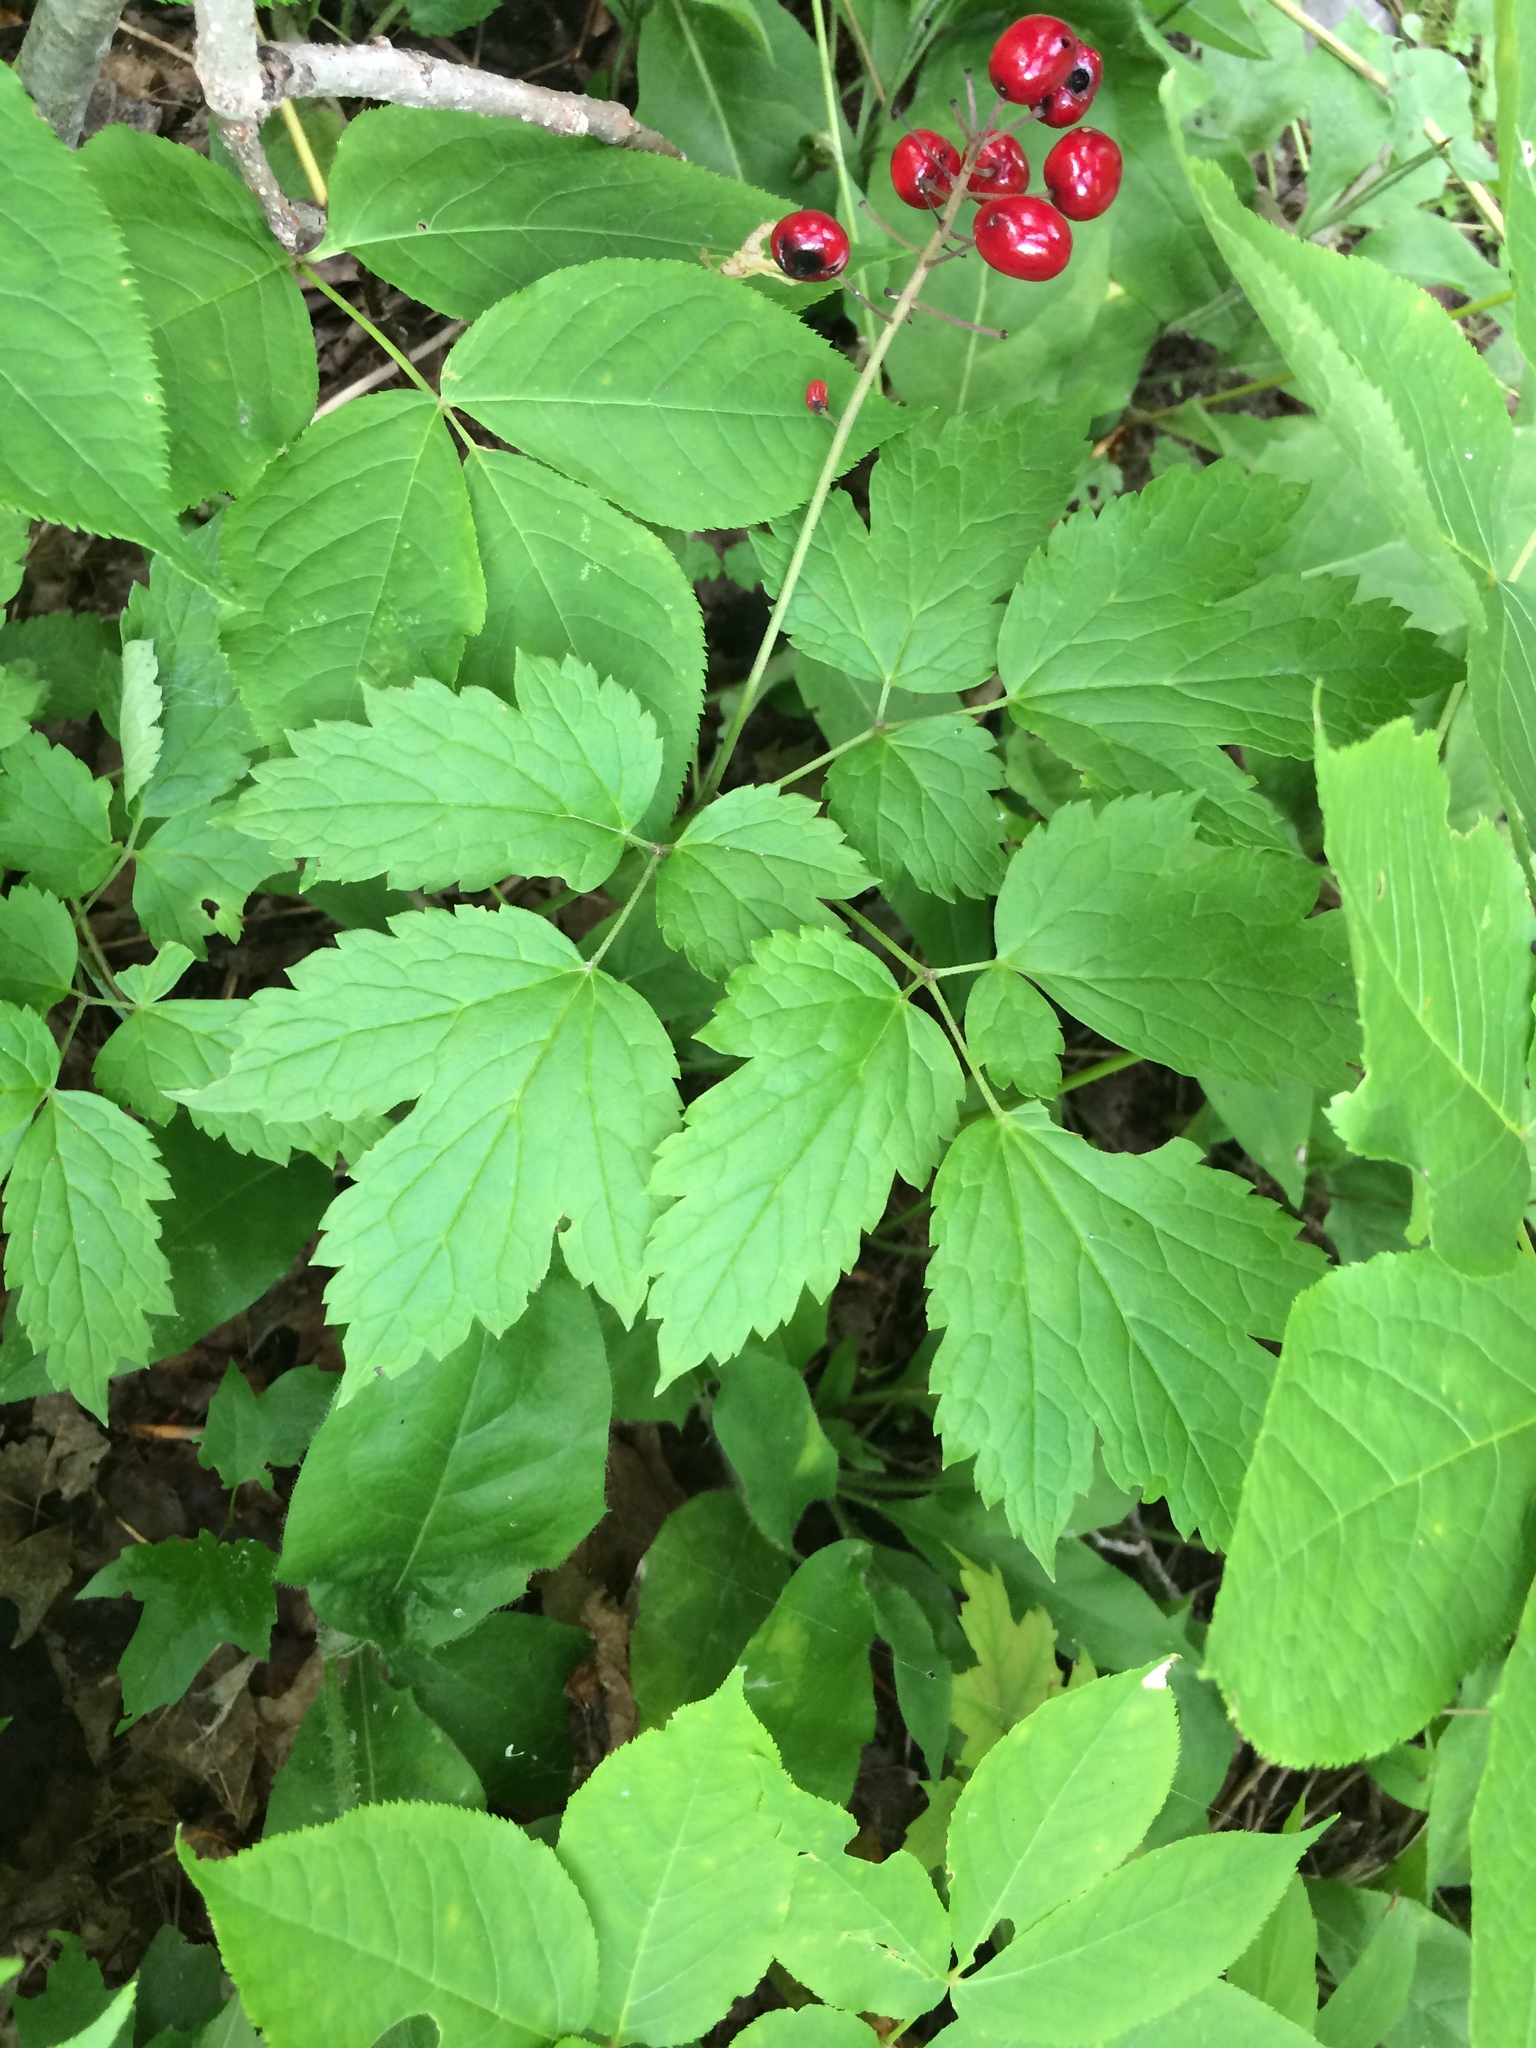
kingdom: Plantae
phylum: Tracheophyta
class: Magnoliopsida
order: Ranunculales
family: Ranunculaceae
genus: Actaea
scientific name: Actaea rubra
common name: Red baneberry
